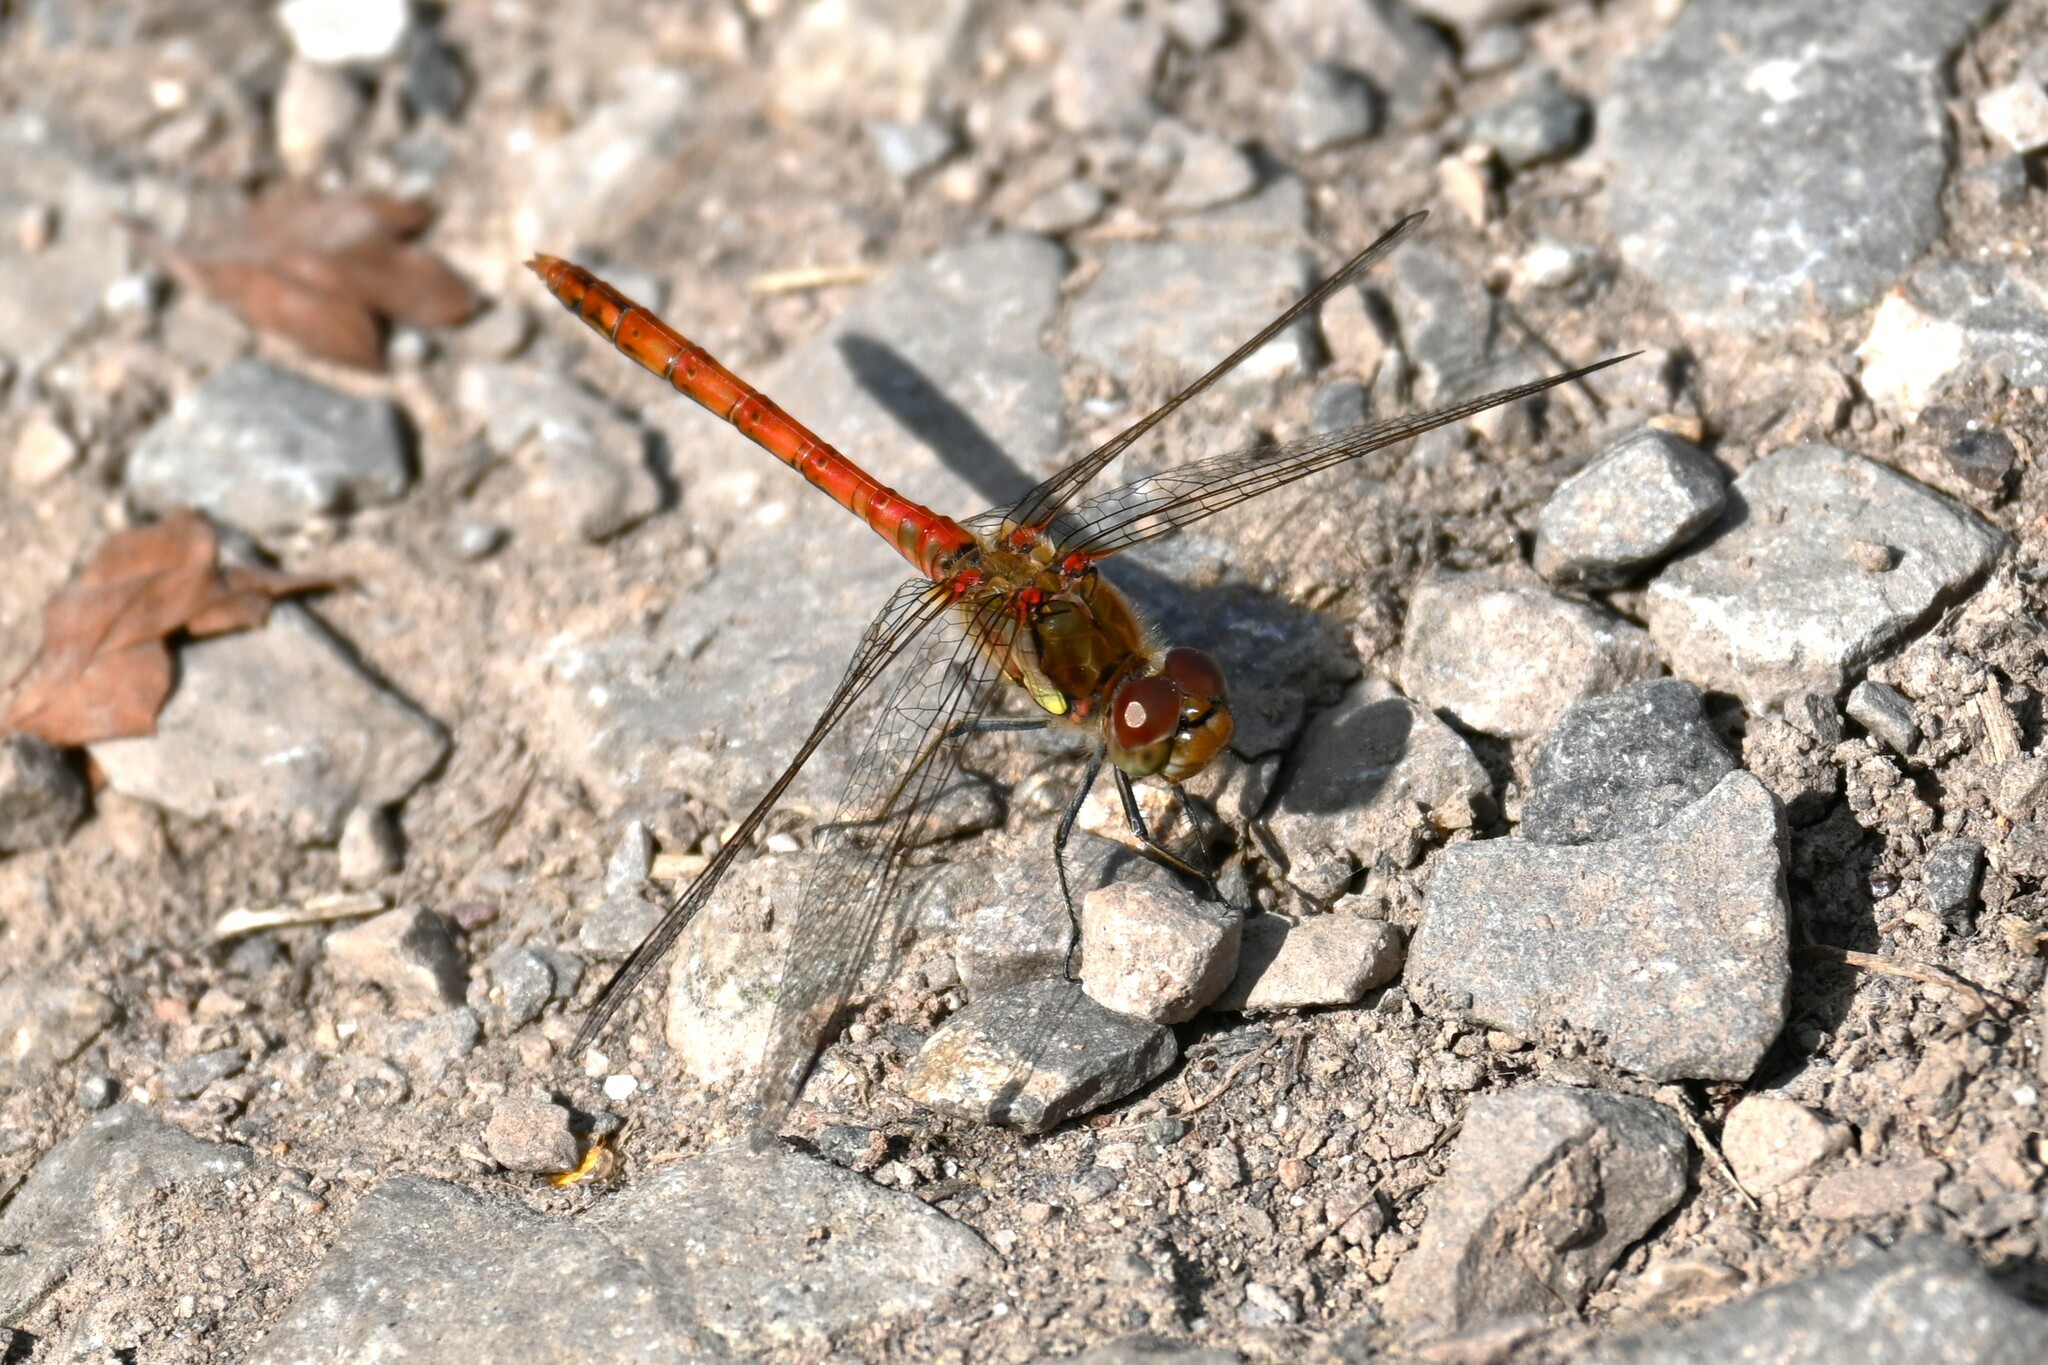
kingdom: Animalia
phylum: Arthropoda
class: Insecta
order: Odonata
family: Libellulidae
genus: Sympetrum
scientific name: Sympetrum striolatum
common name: Common darter
